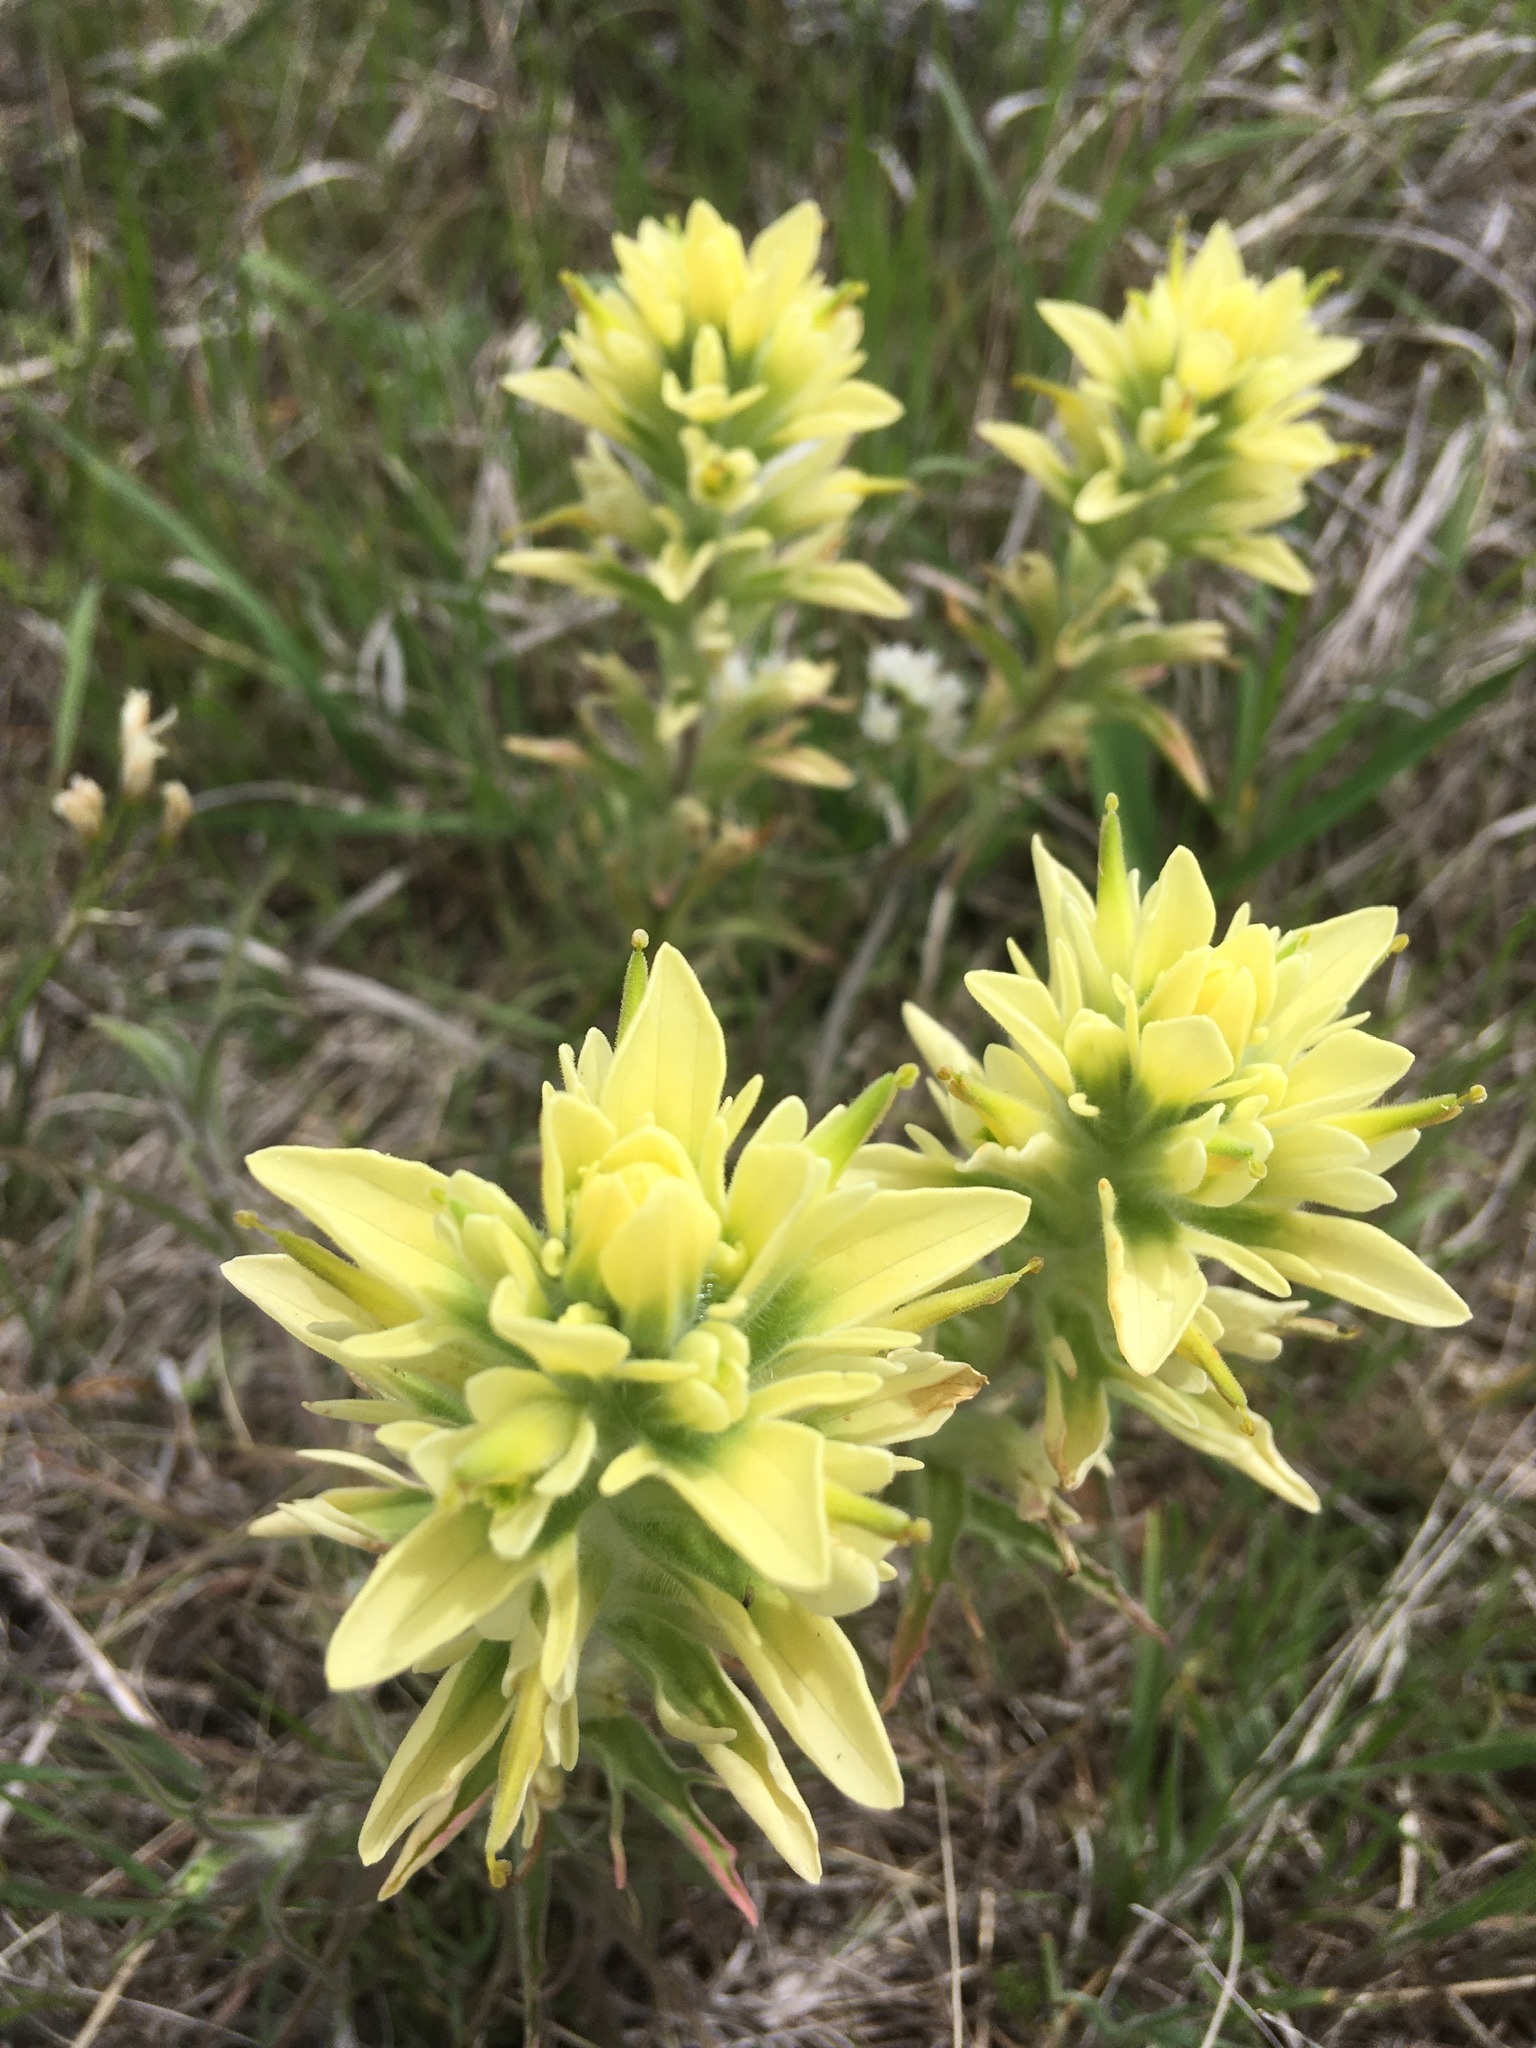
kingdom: Plantae
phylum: Tracheophyta
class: Magnoliopsida
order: Lamiales
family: Orobanchaceae
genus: Castilleja
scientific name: Castilleja citrina
